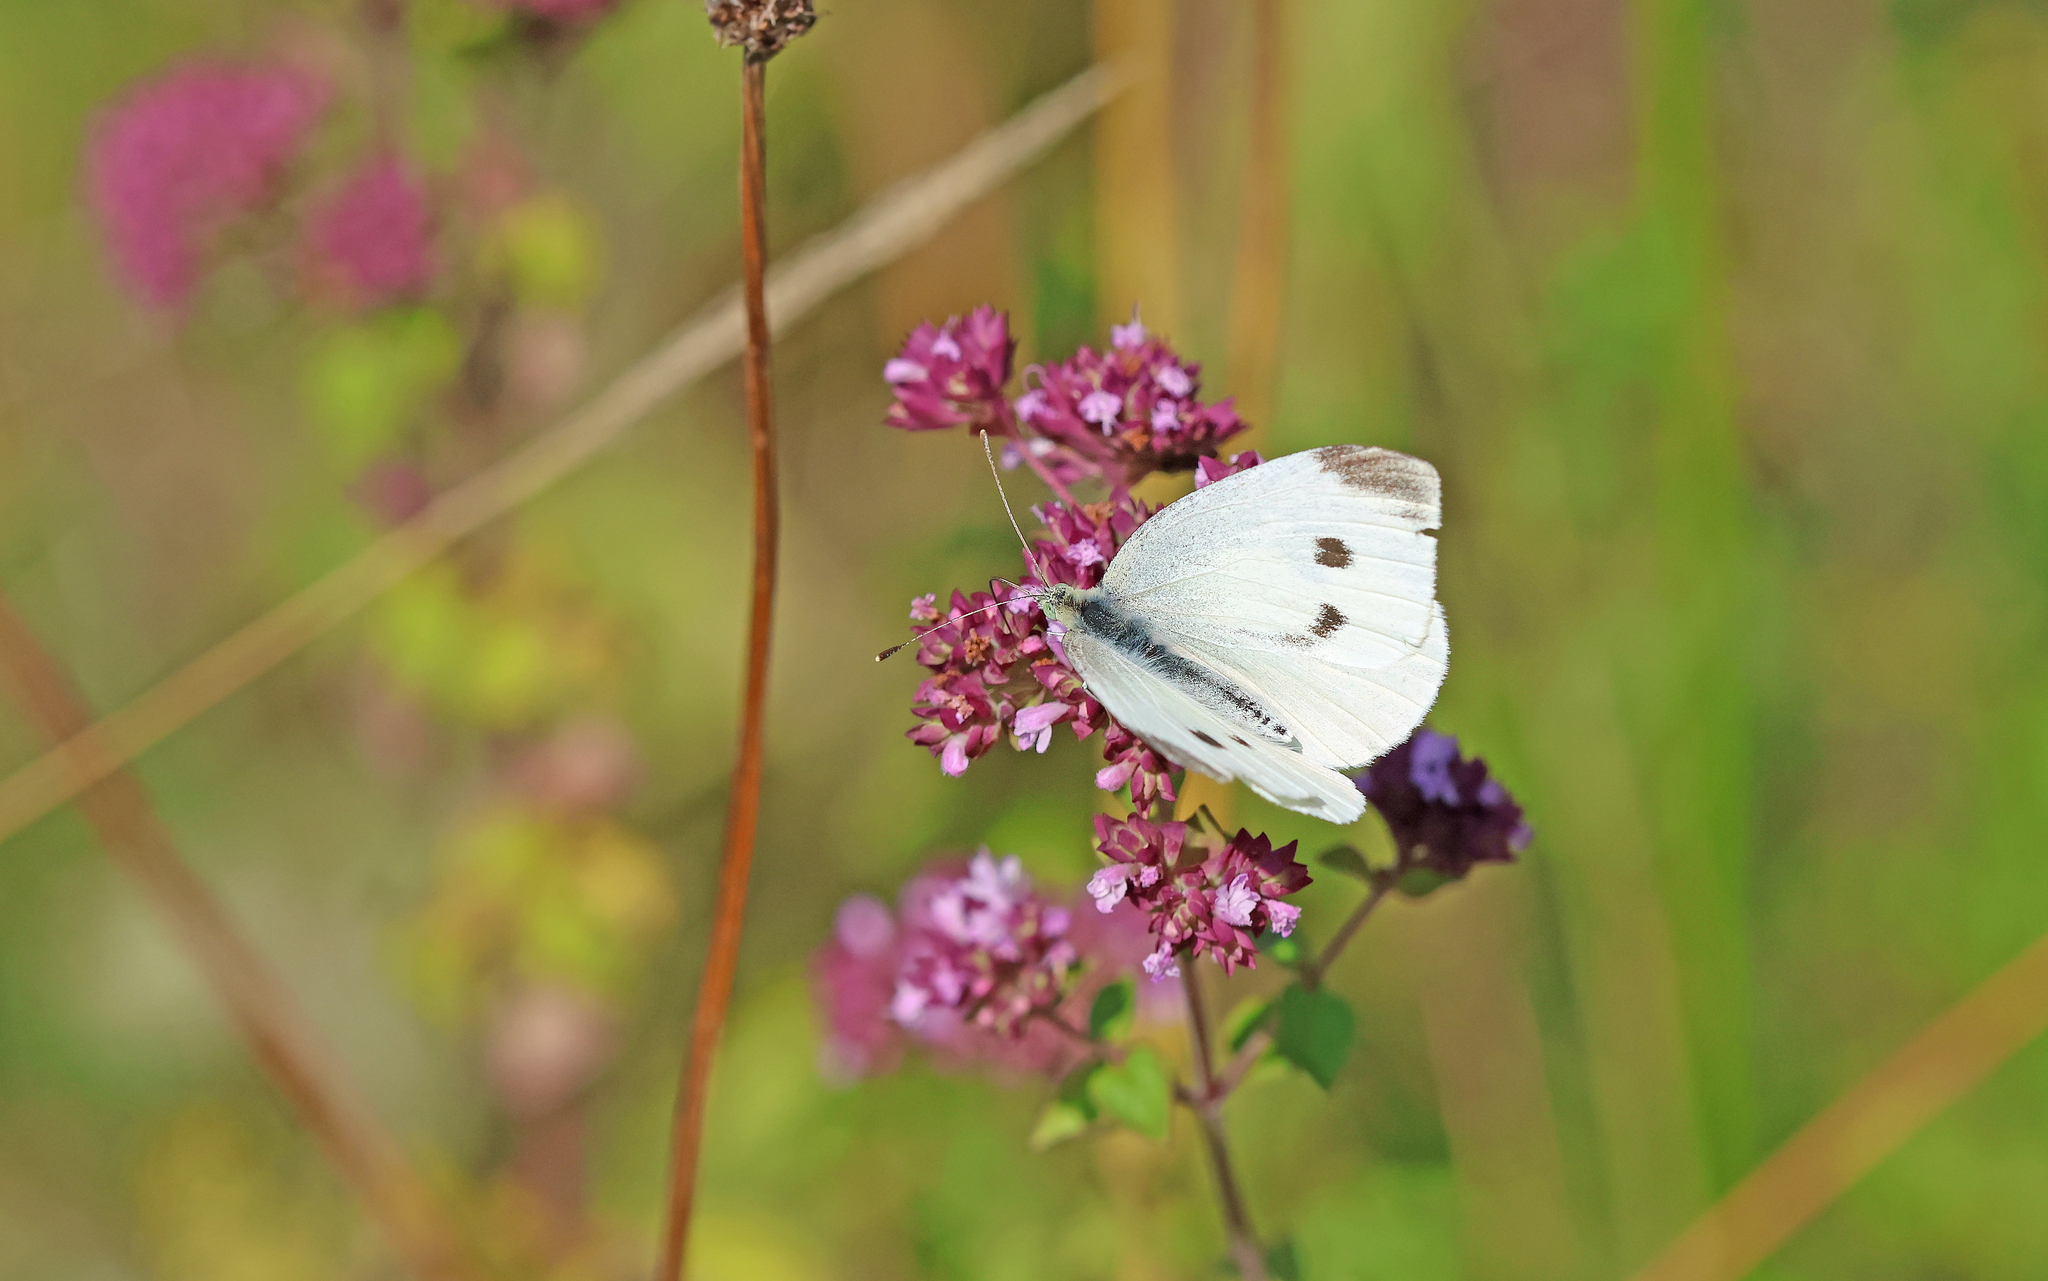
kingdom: Animalia
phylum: Arthropoda
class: Insecta
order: Lepidoptera
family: Pieridae
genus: Pieris
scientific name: Pieris rapae
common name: Small white
